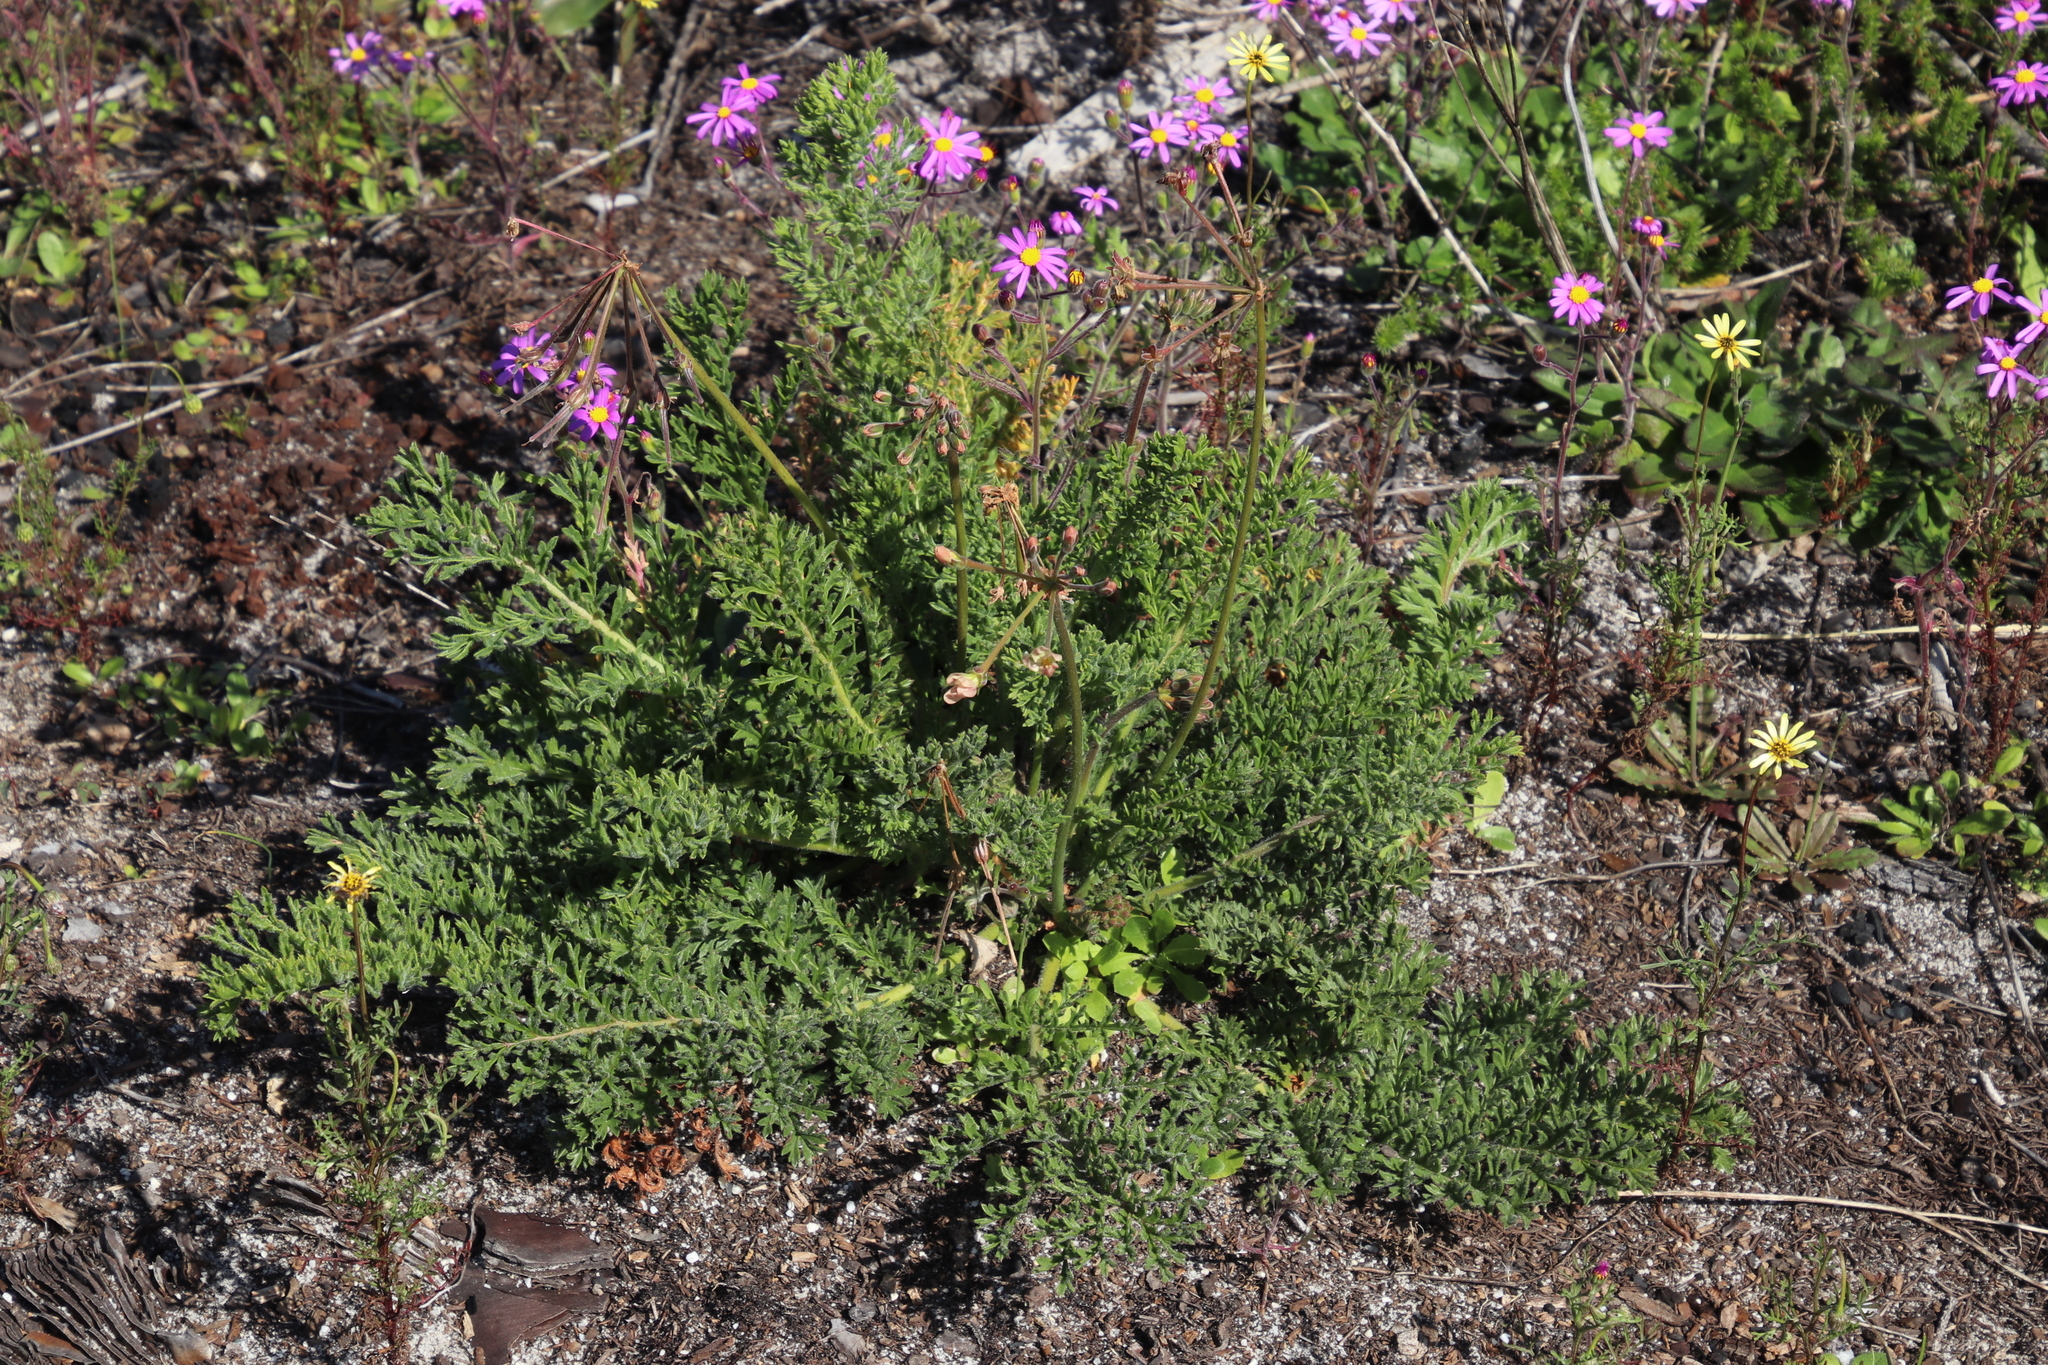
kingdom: Plantae
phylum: Tracheophyta
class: Magnoliopsida
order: Geraniales
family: Geraniaceae
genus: Pelargonium
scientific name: Pelargonium triste
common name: Night-scent pelargonium
